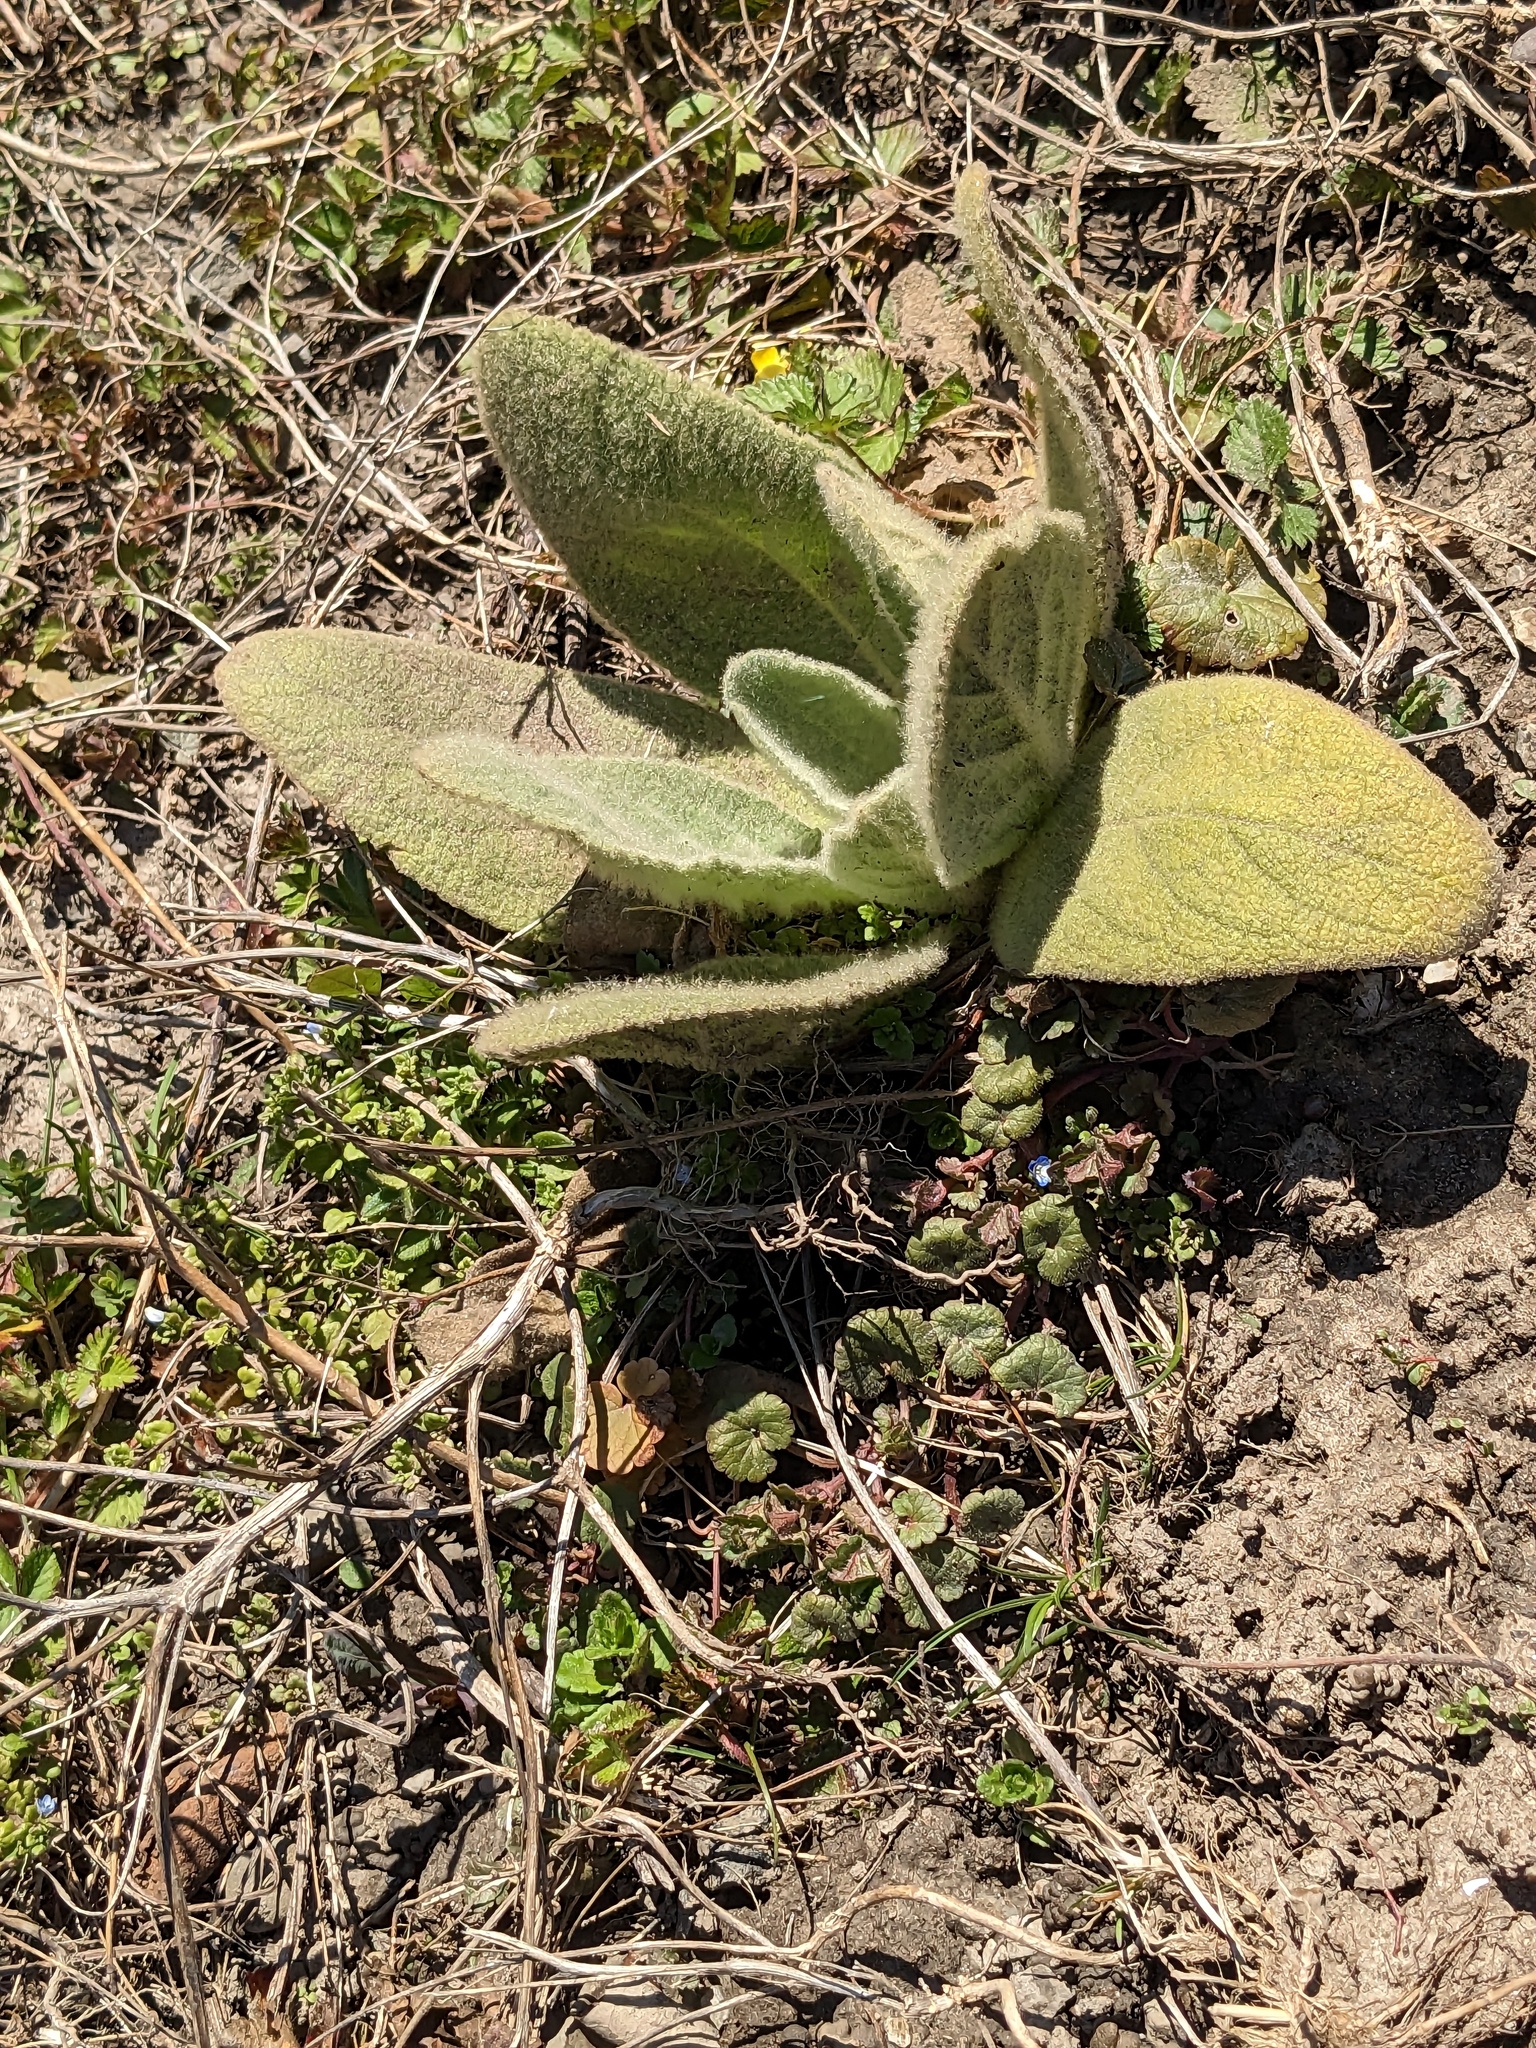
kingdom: Plantae
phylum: Tracheophyta
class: Magnoliopsida
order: Lamiales
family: Scrophulariaceae
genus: Verbascum
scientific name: Verbascum thapsus
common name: Common mullein
